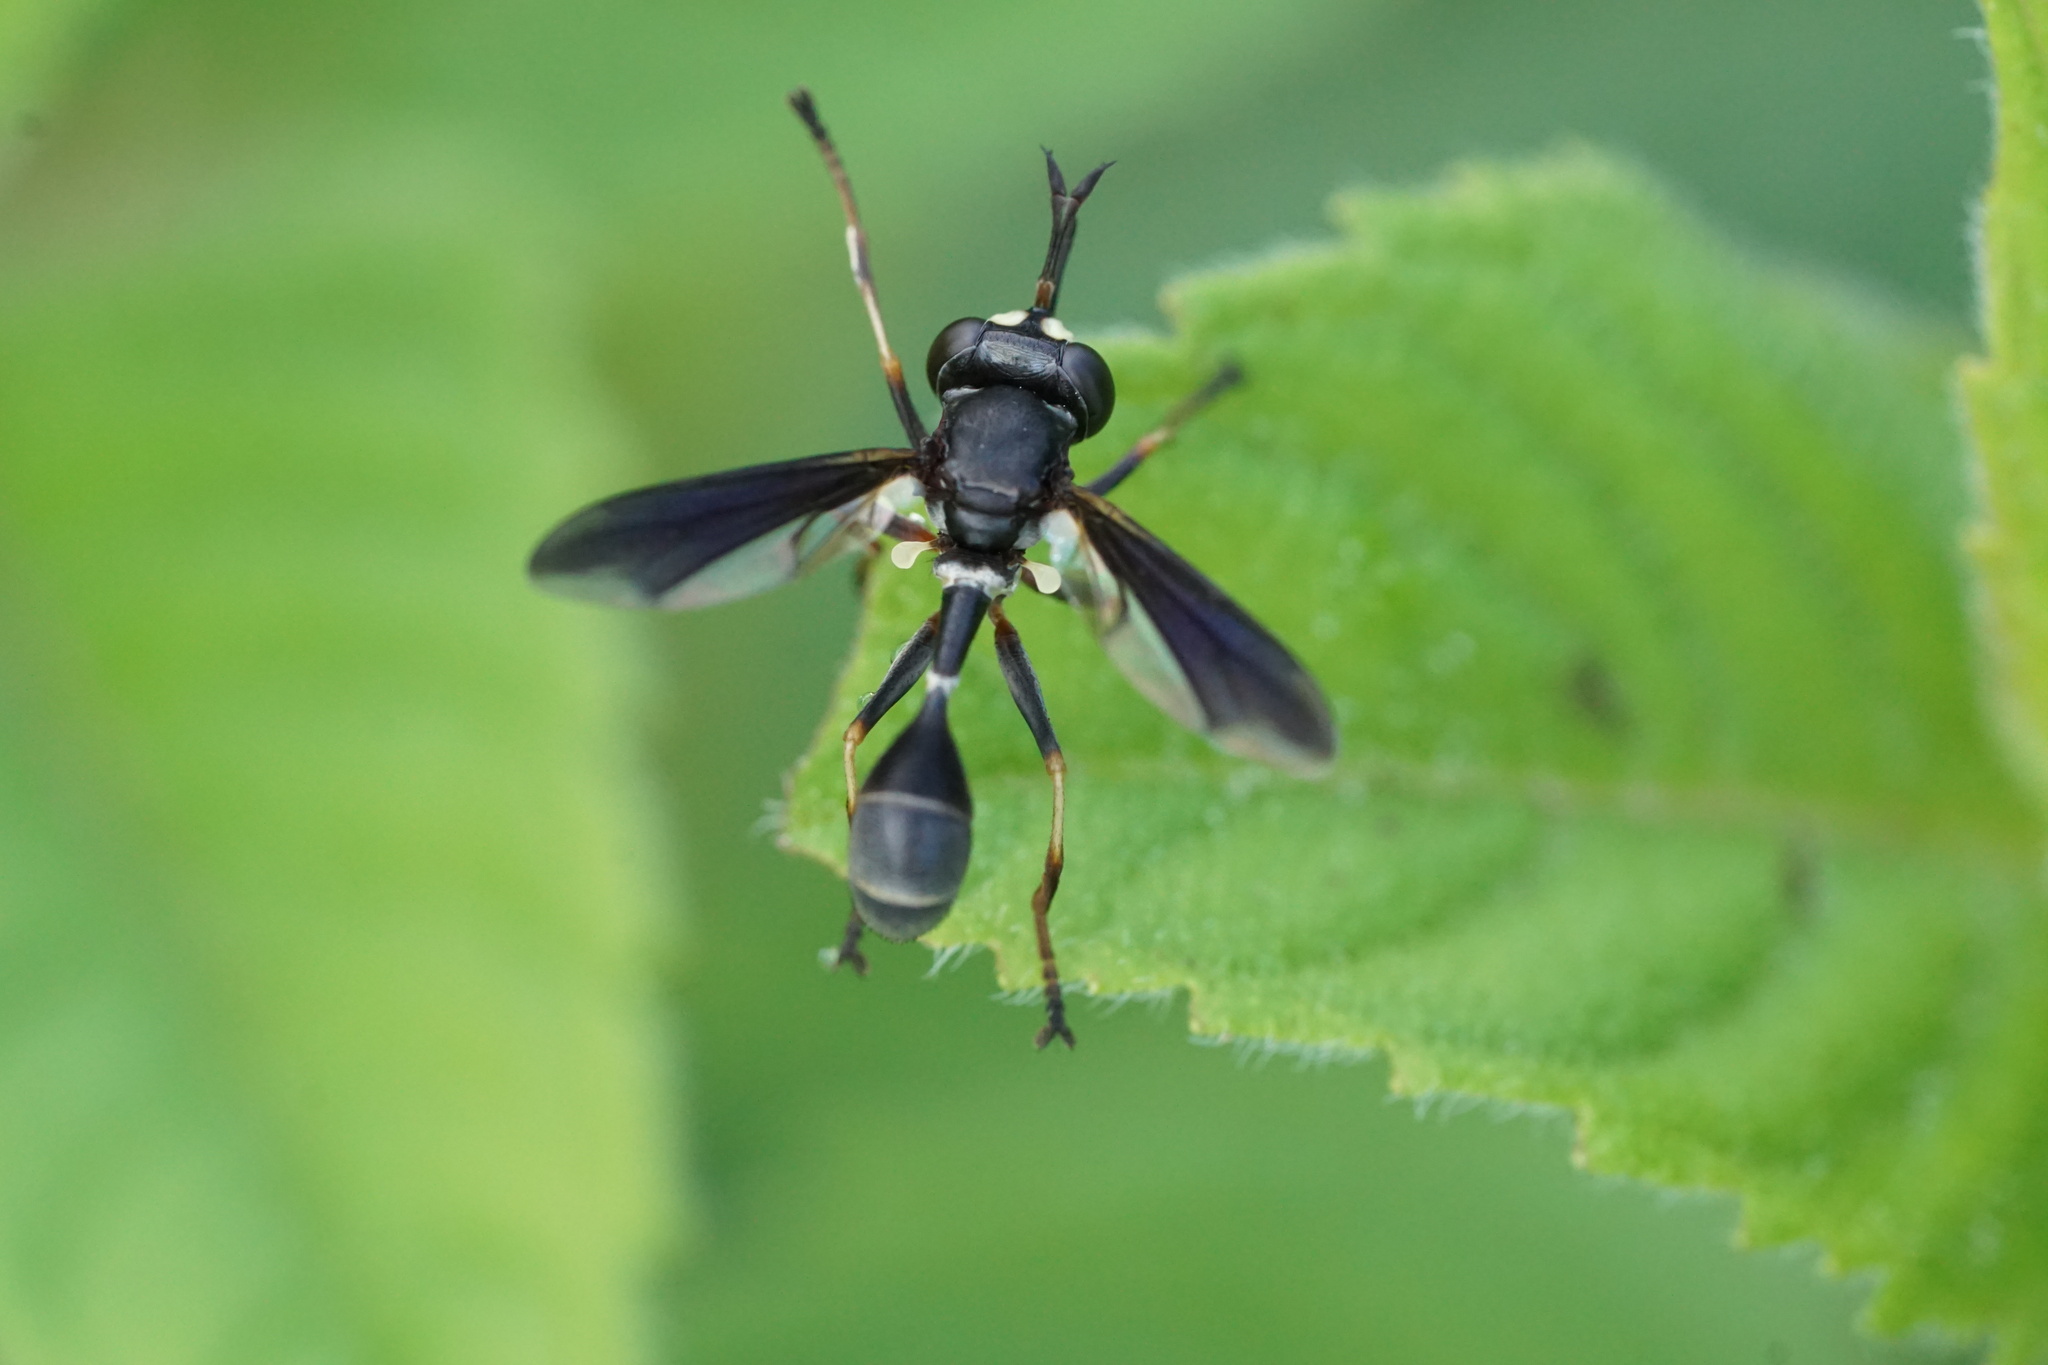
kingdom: Animalia
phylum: Arthropoda
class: Insecta
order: Diptera
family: Conopidae
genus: Physocephala
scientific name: Physocephala tibialis
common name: Common eastern physocephala
